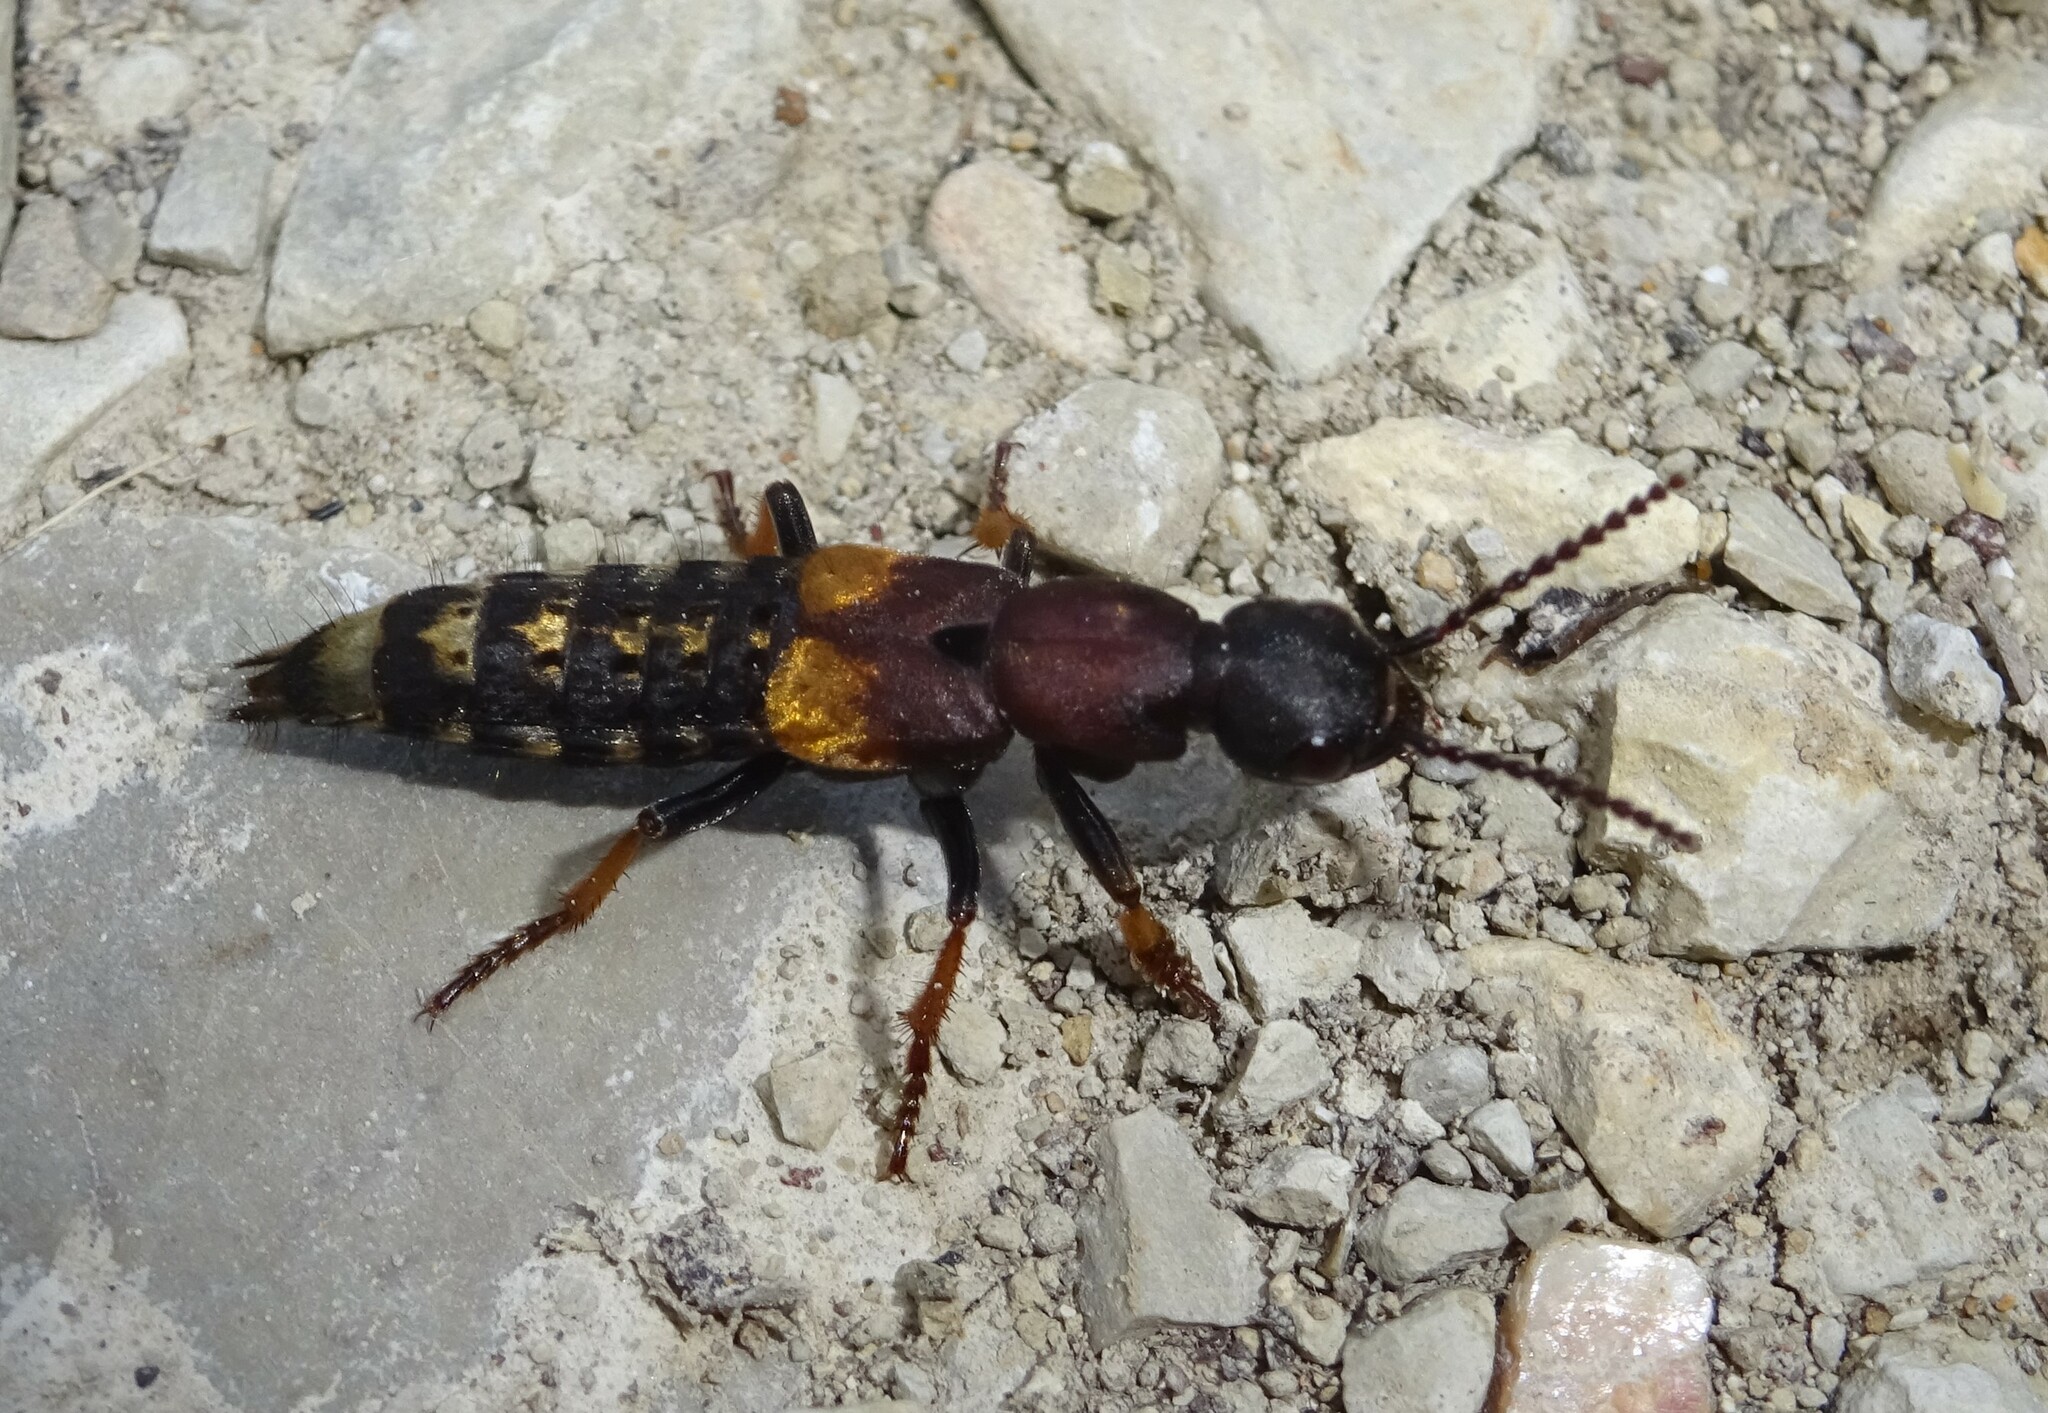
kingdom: Animalia
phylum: Arthropoda
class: Insecta
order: Coleoptera
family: Staphylinidae
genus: Dinothenarus
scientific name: Dinothenarus fossor
